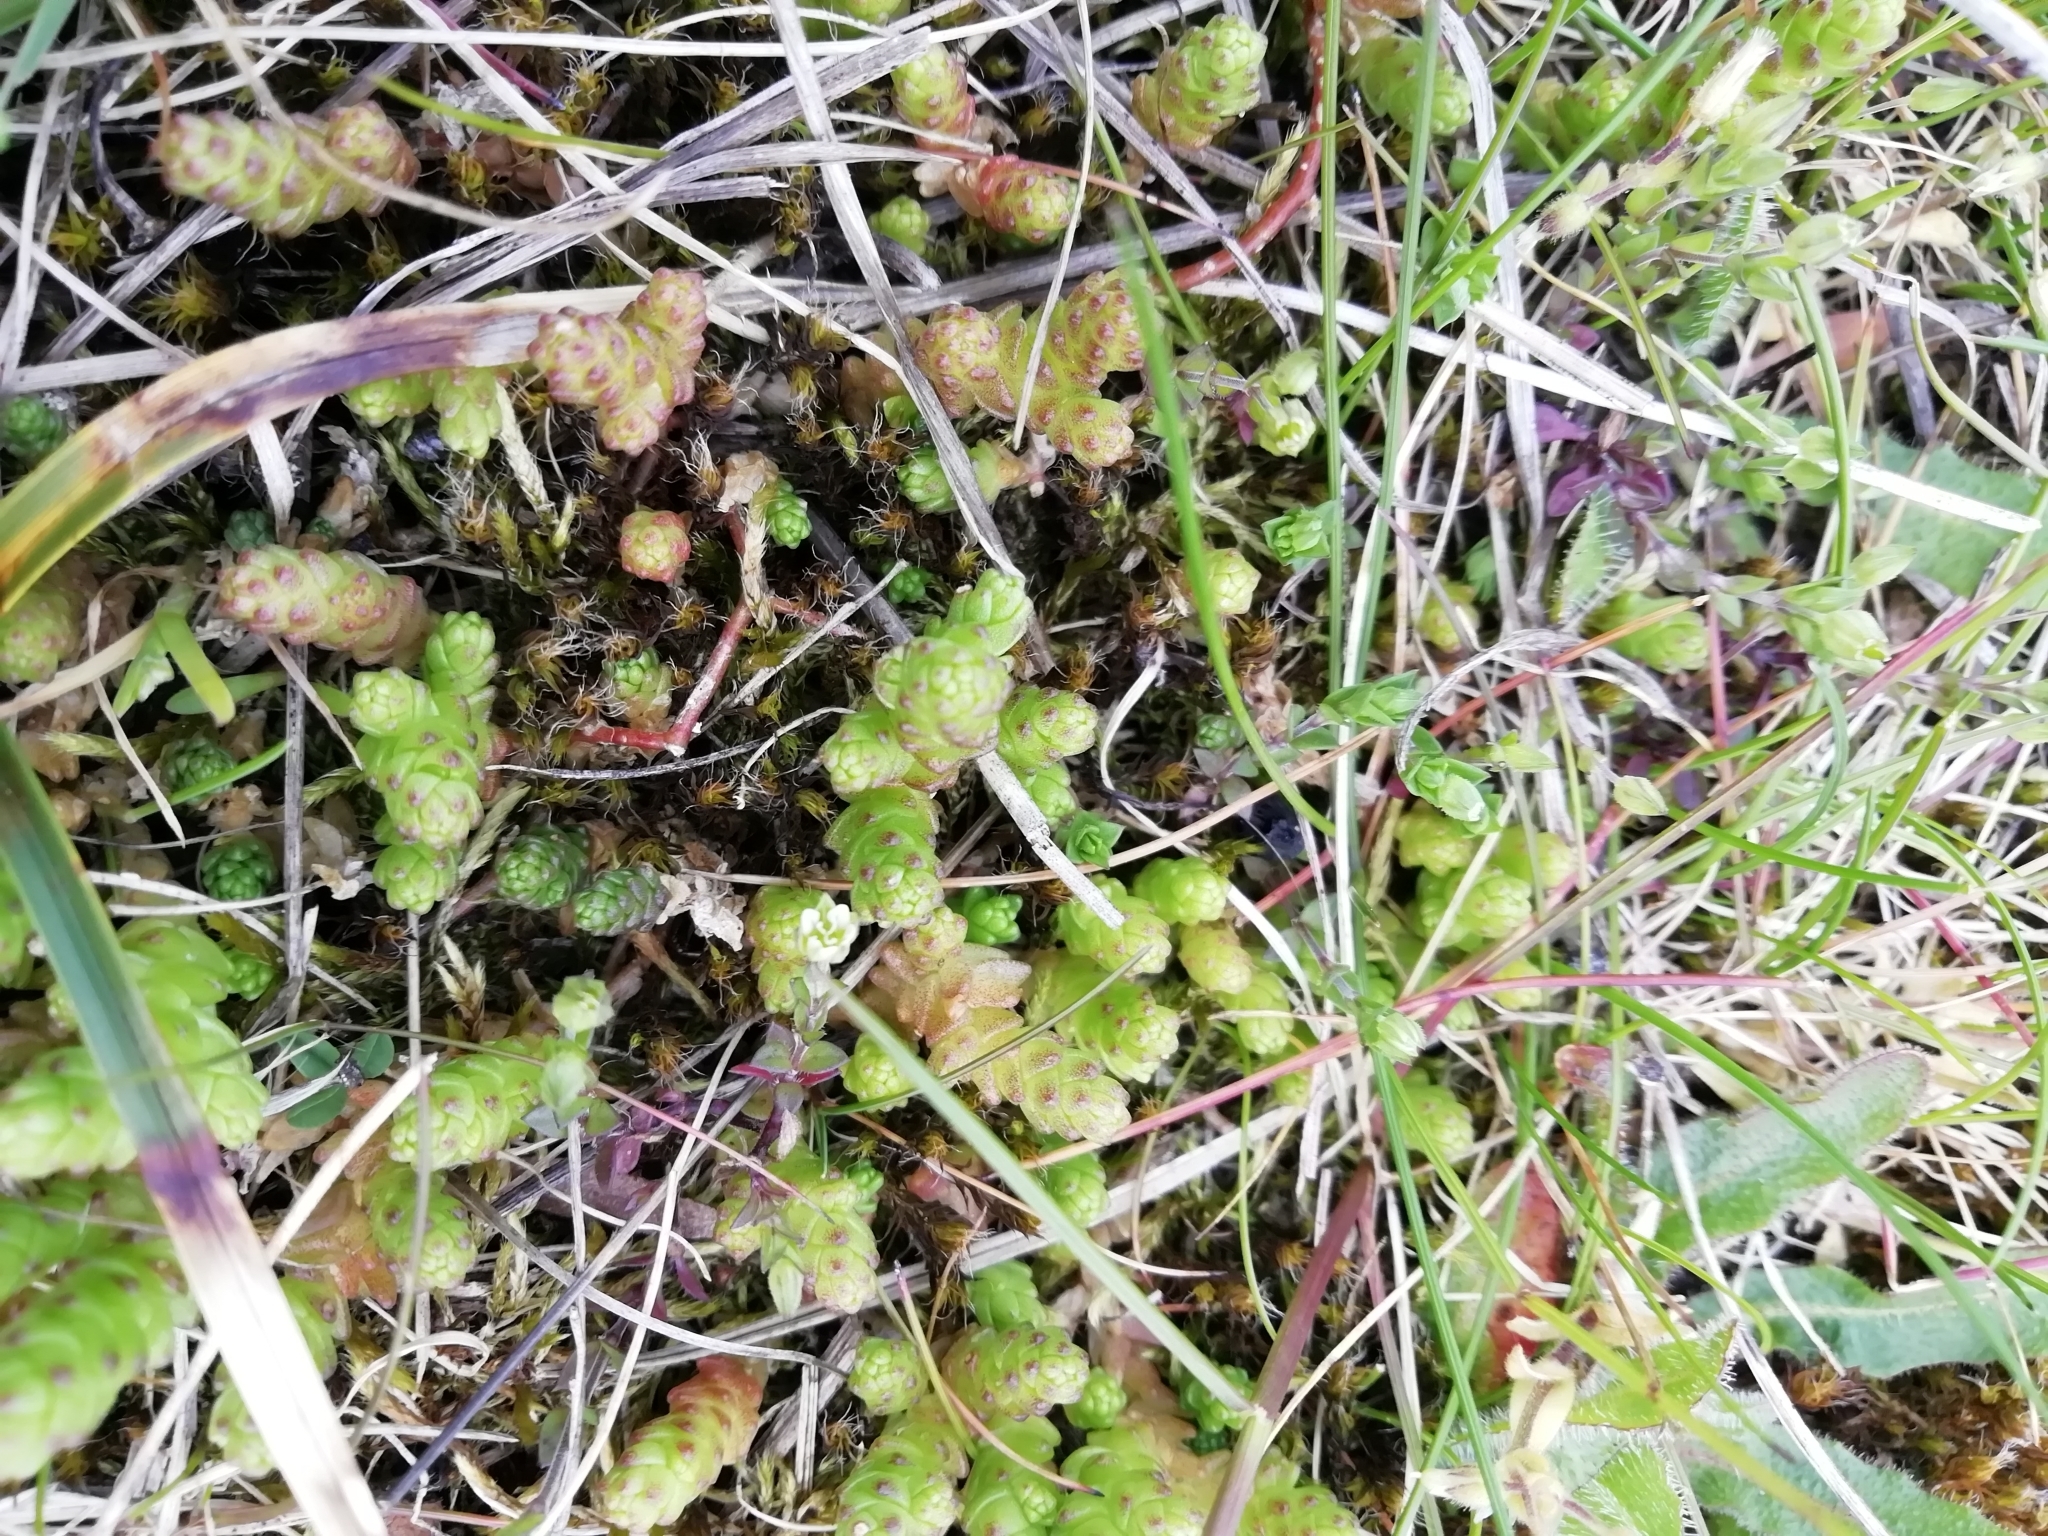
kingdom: Plantae
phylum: Tracheophyta
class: Magnoliopsida
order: Saxifragales
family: Crassulaceae
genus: Sedum
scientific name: Sedum acre
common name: Biting stonecrop
